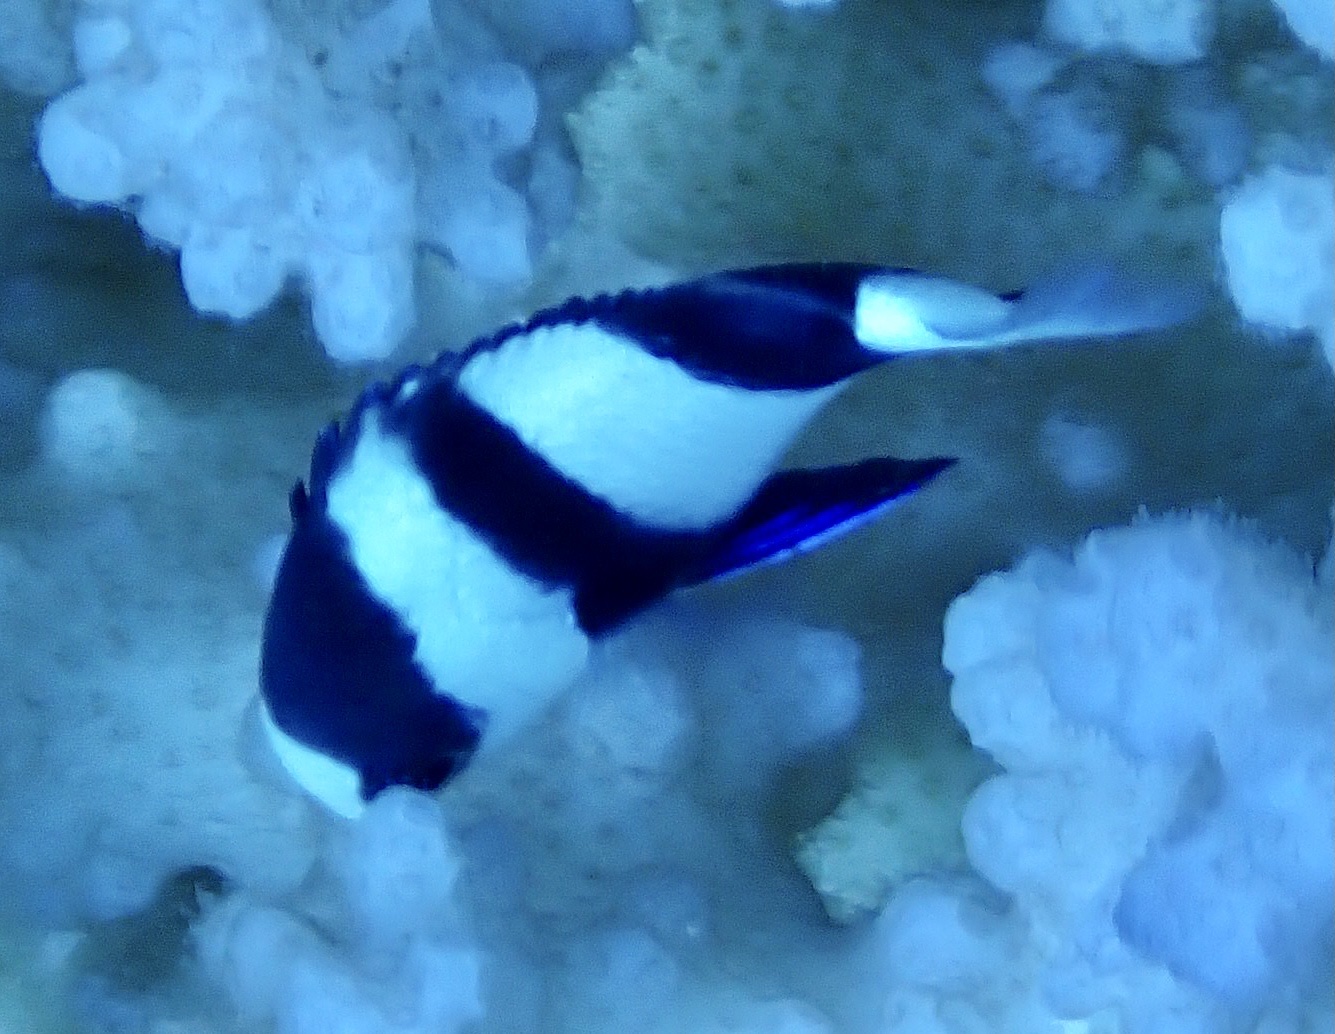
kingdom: Animalia
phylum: Chordata
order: Perciformes
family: Pomacentridae
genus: Dascyllus
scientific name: Dascyllus abudafur
